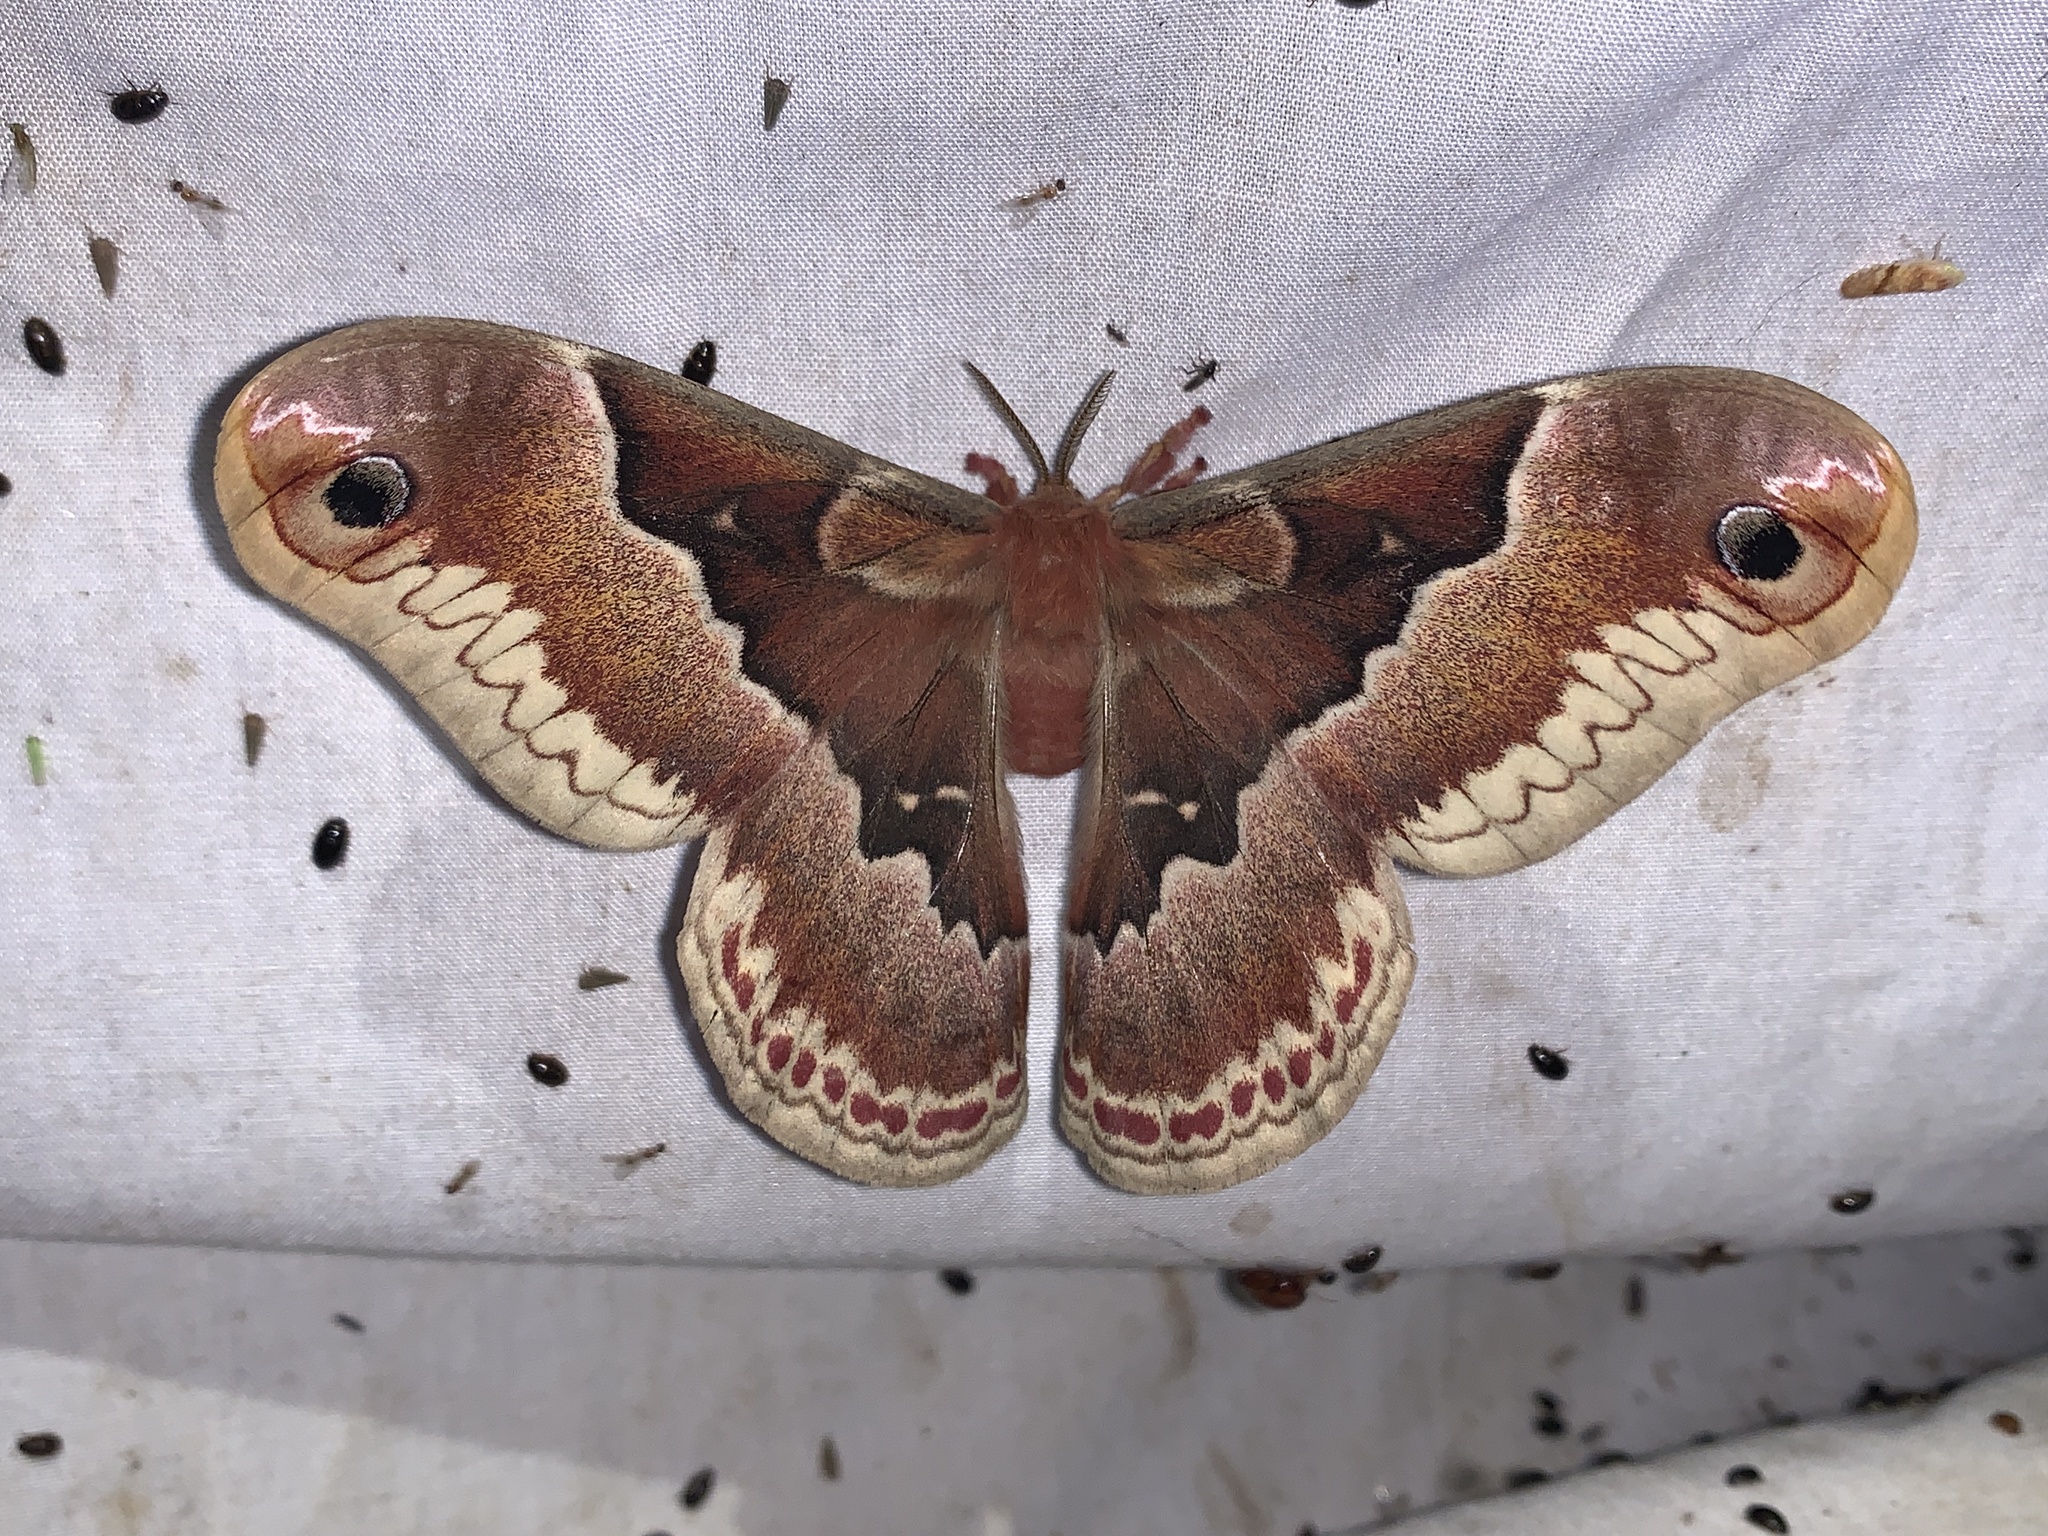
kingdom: Animalia
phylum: Arthropoda
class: Insecta
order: Lepidoptera
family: Saturniidae
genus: Callosamia
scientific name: Callosamia promethea
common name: Promethea silkmoth
